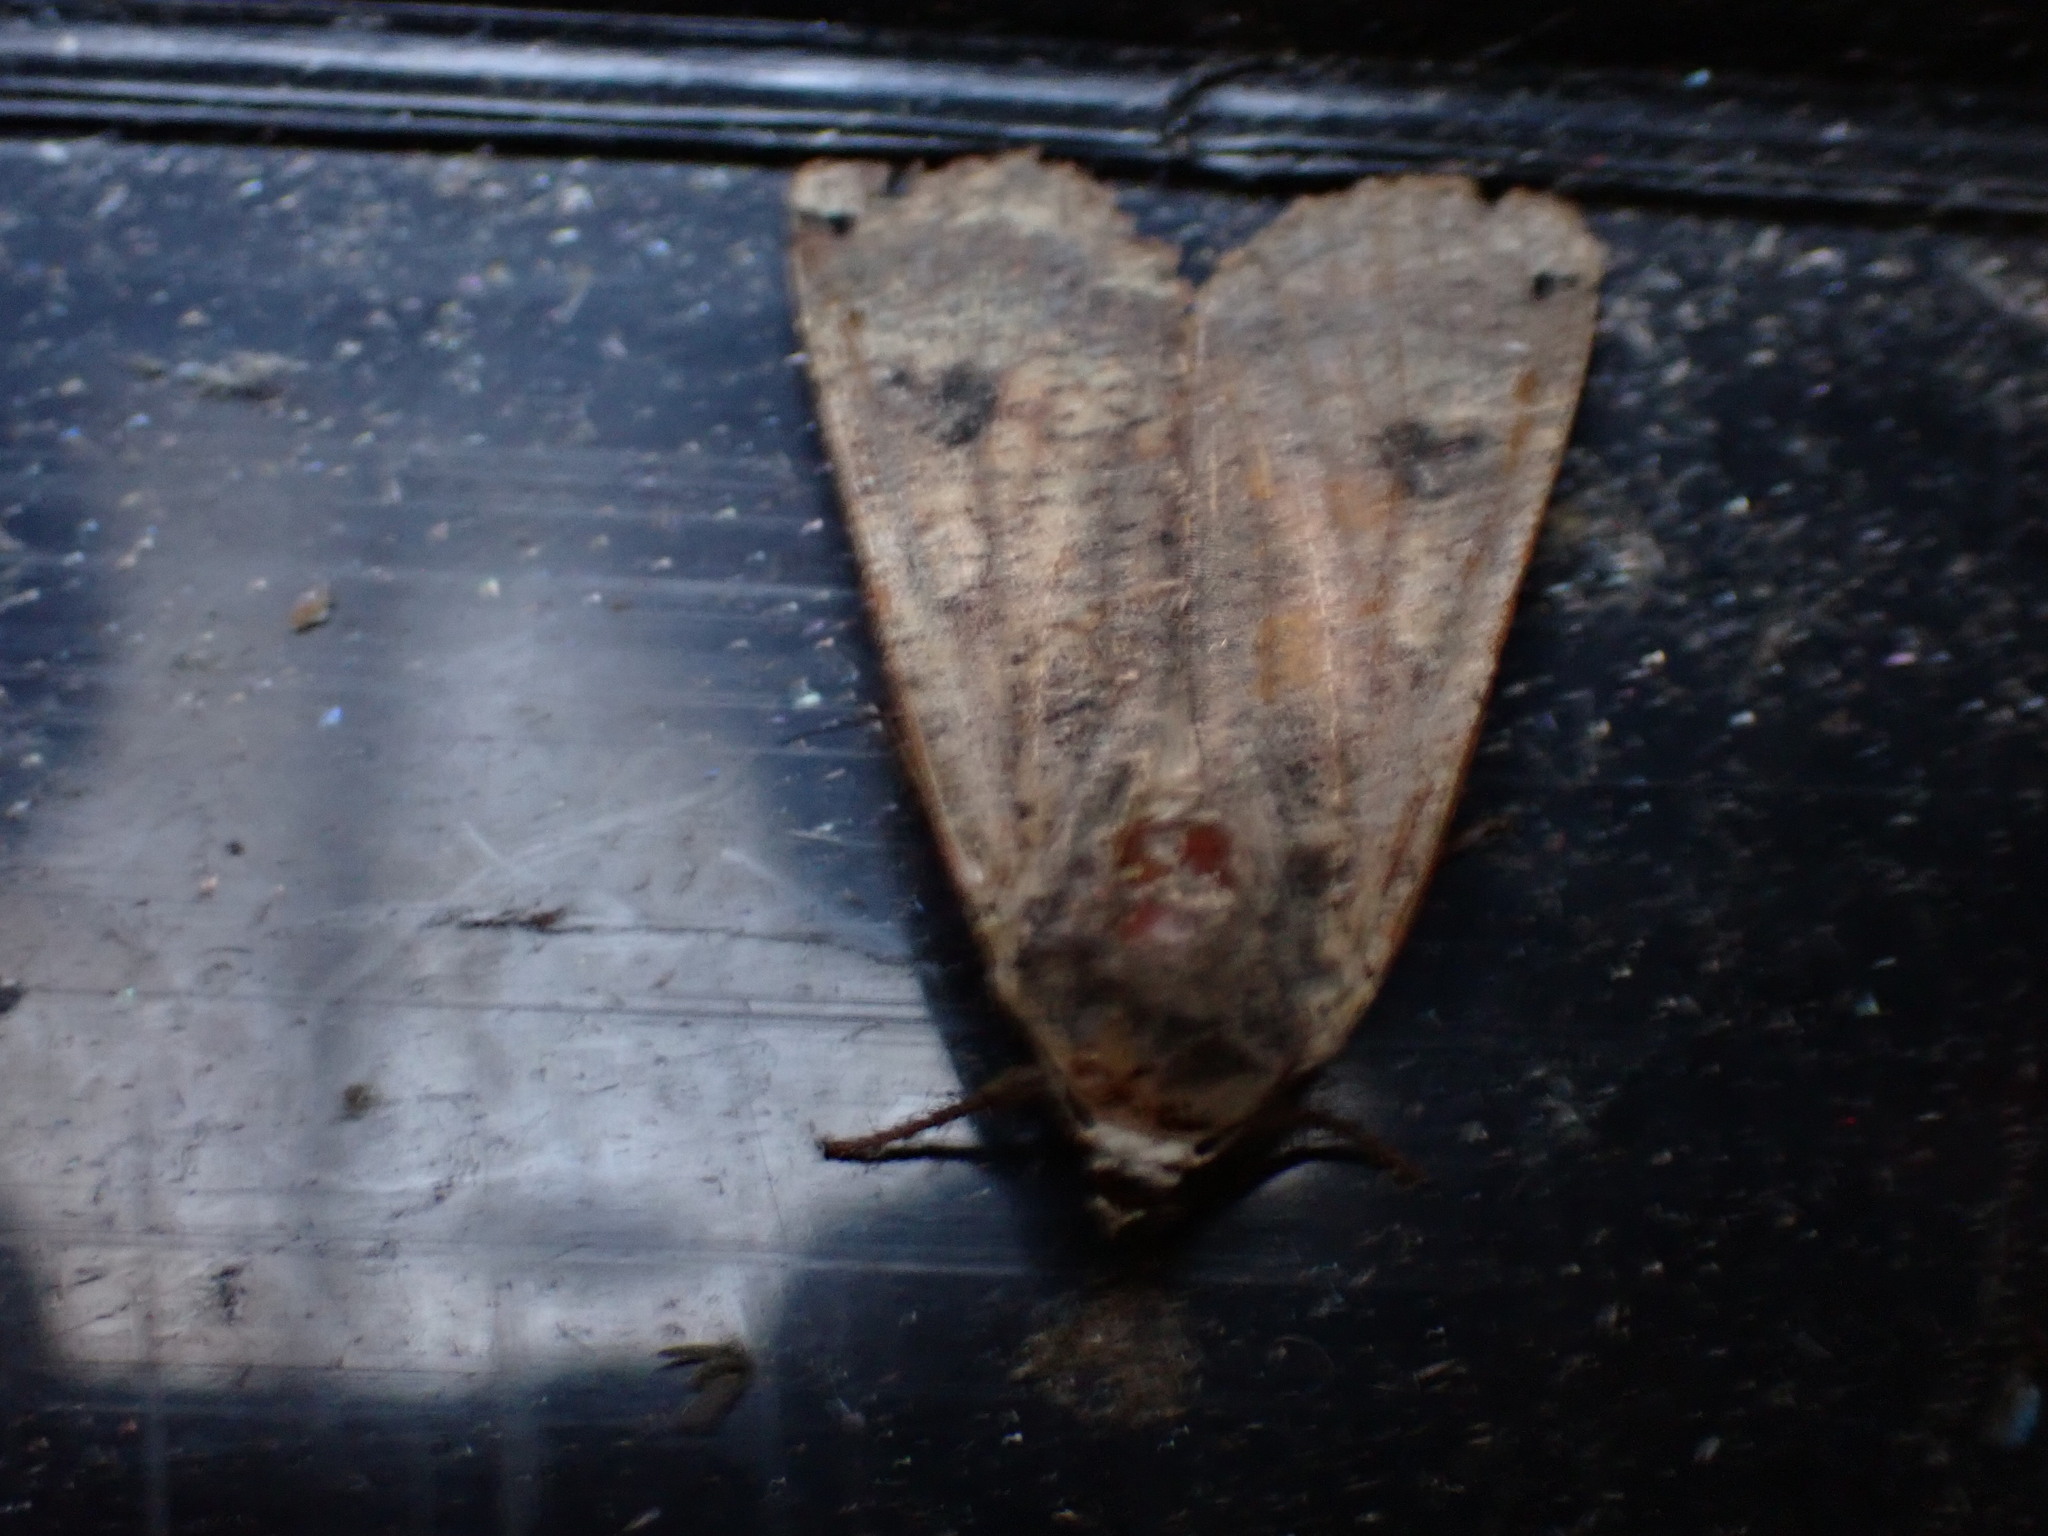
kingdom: Animalia
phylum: Arthropoda
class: Insecta
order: Lepidoptera
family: Noctuidae
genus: Noctua
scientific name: Noctua pronuba
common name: Large yellow underwing
